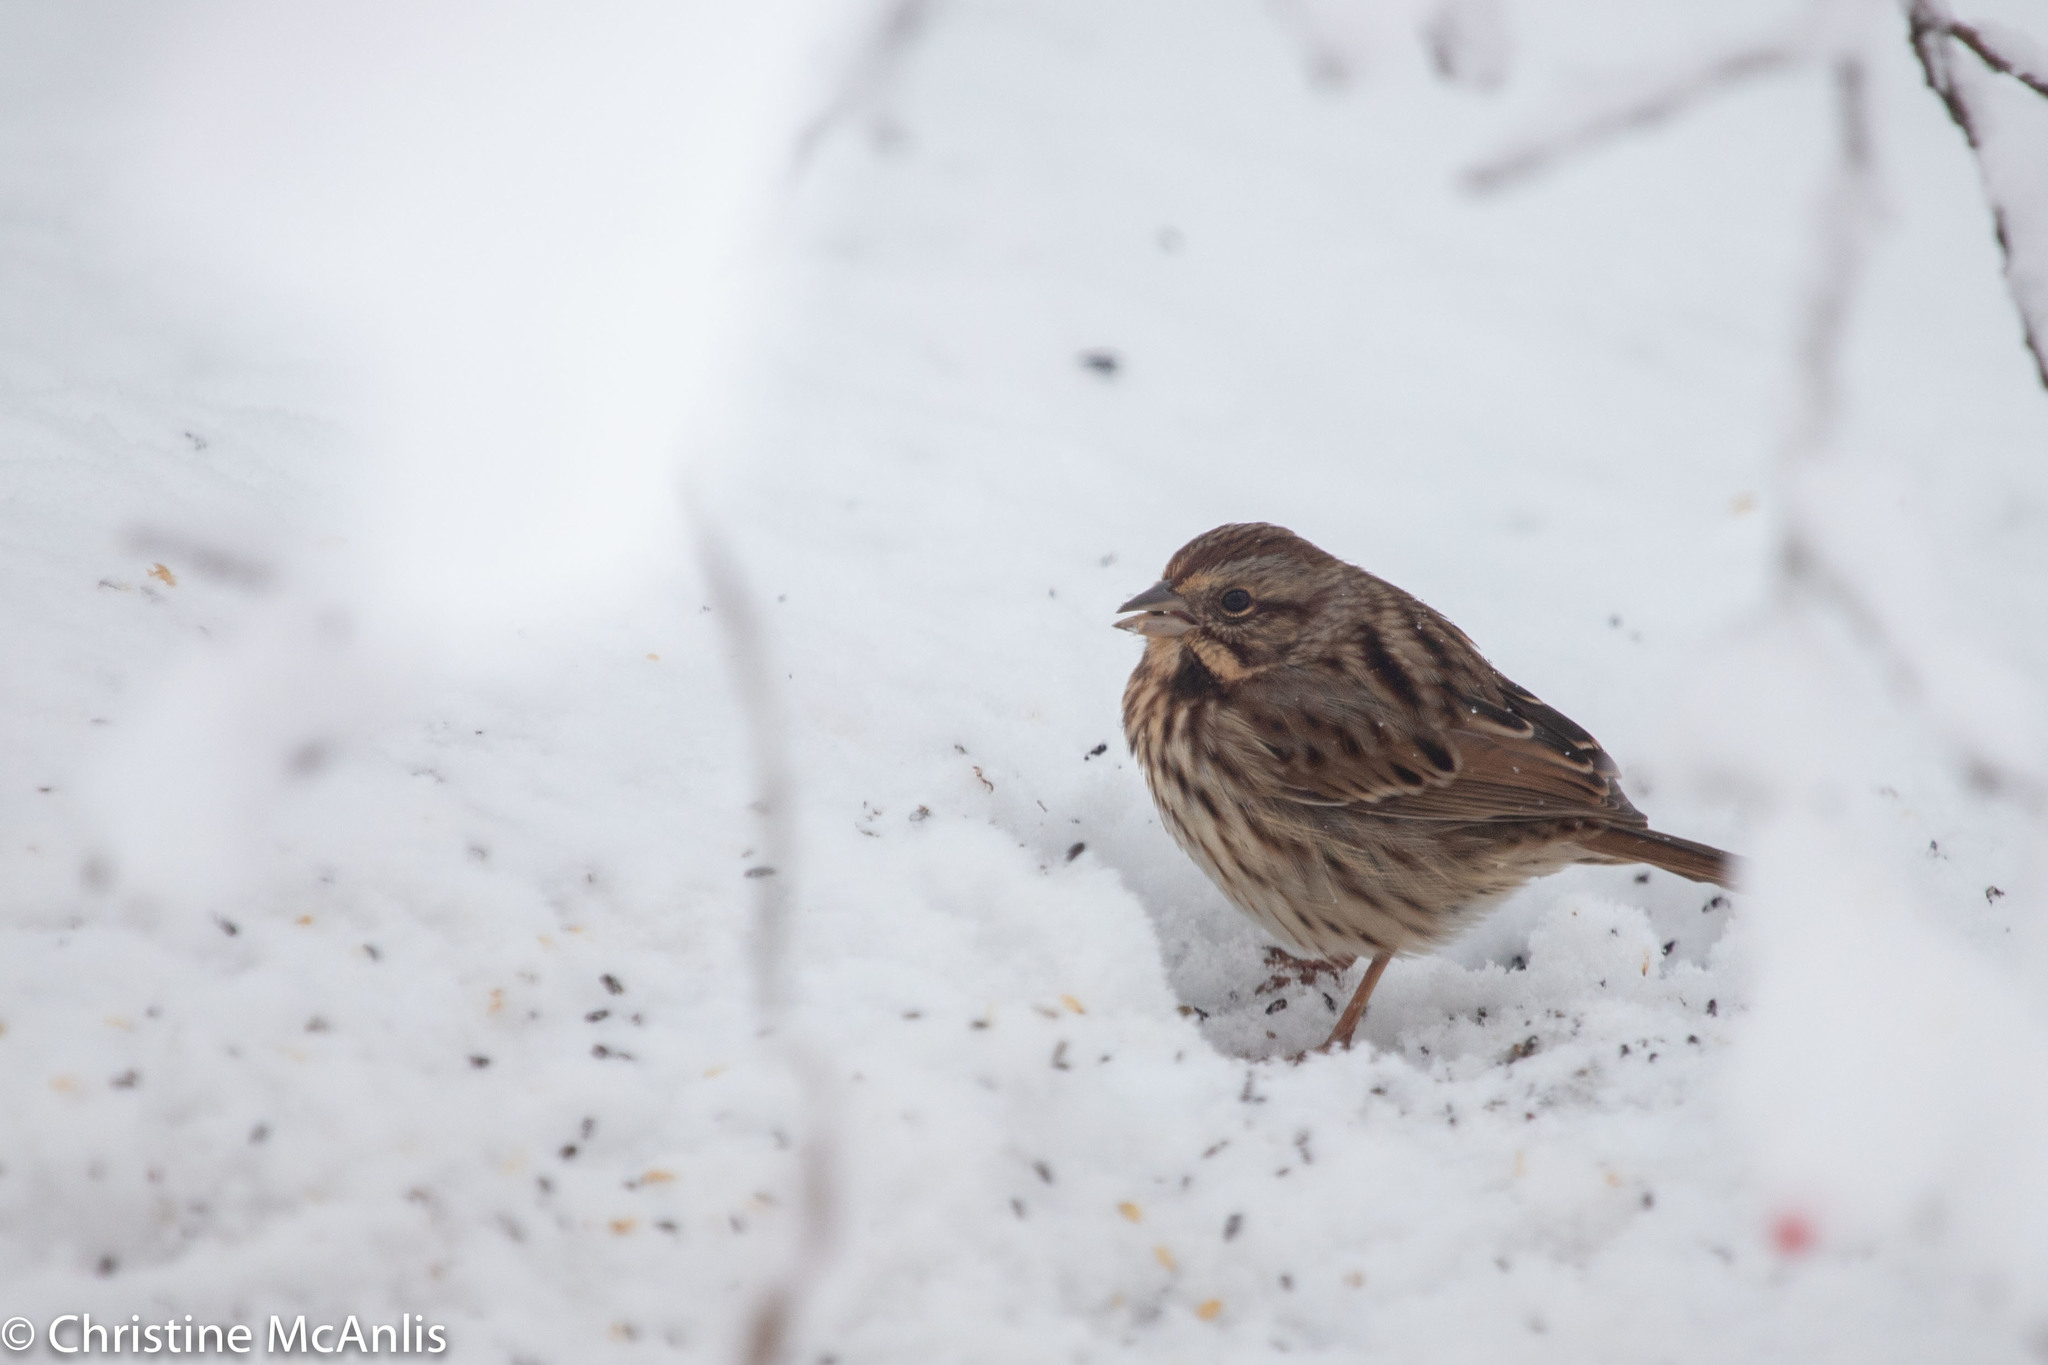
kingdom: Animalia
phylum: Chordata
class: Aves
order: Passeriformes
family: Passerellidae
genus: Melospiza
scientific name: Melospiza melodia
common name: Song sparrow
